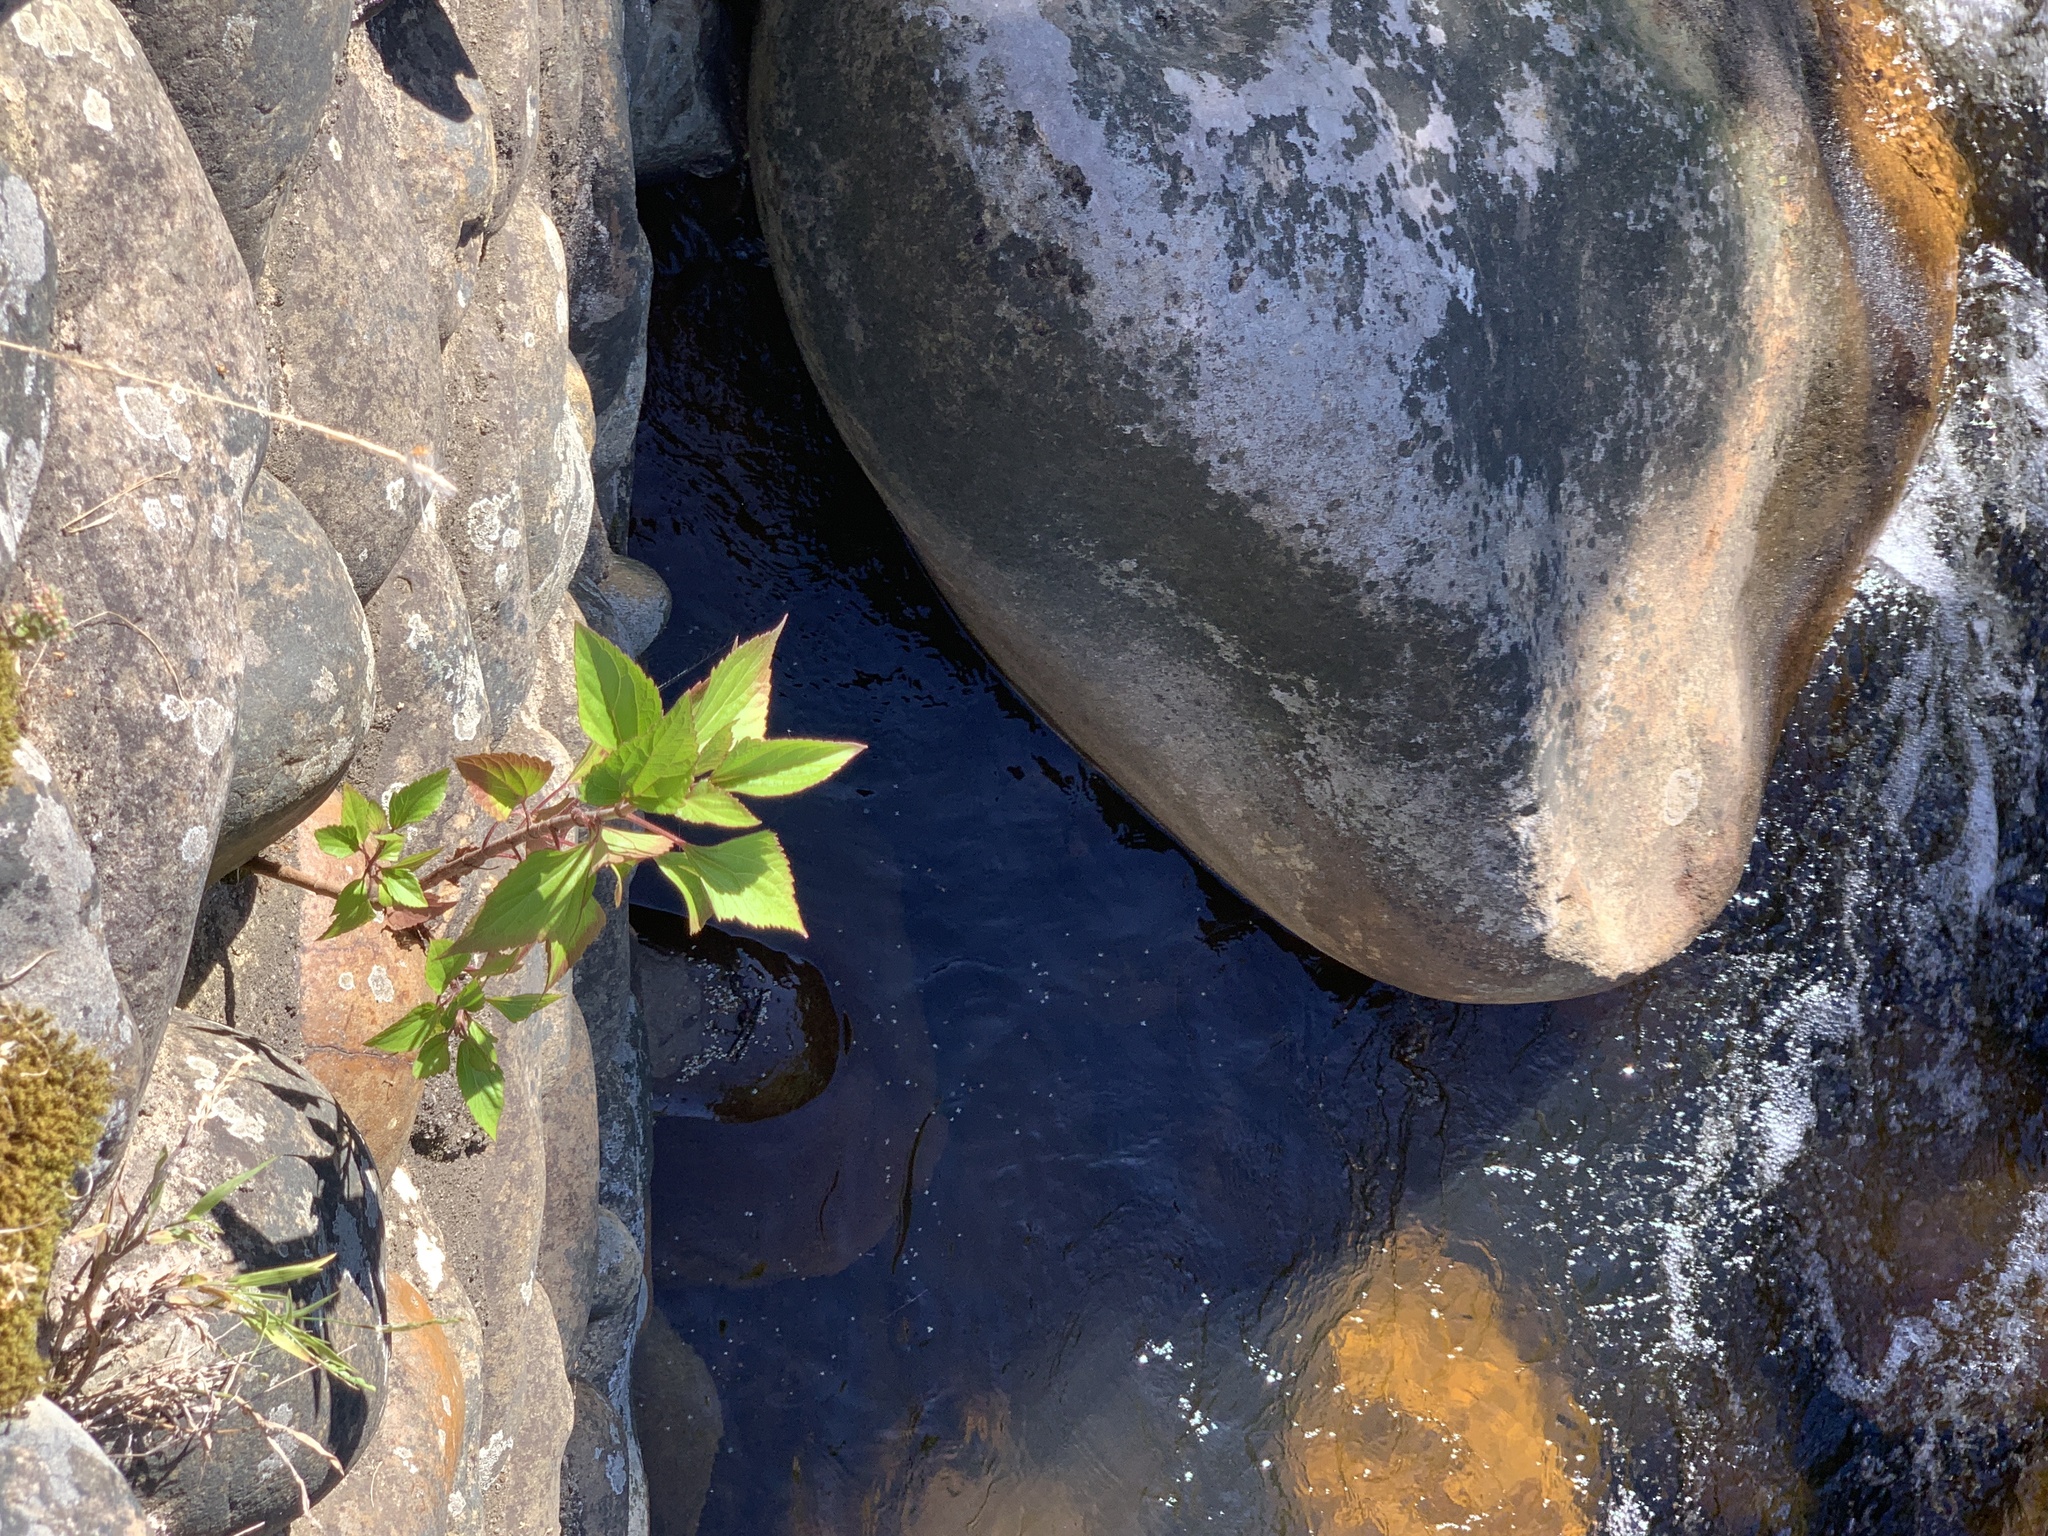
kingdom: Plantae
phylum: Tracheophyta
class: Magnoliopsida
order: Asterales
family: Asteraceae
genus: Ageratina
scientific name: Ageratina adenophora
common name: Sticky snakeroot
